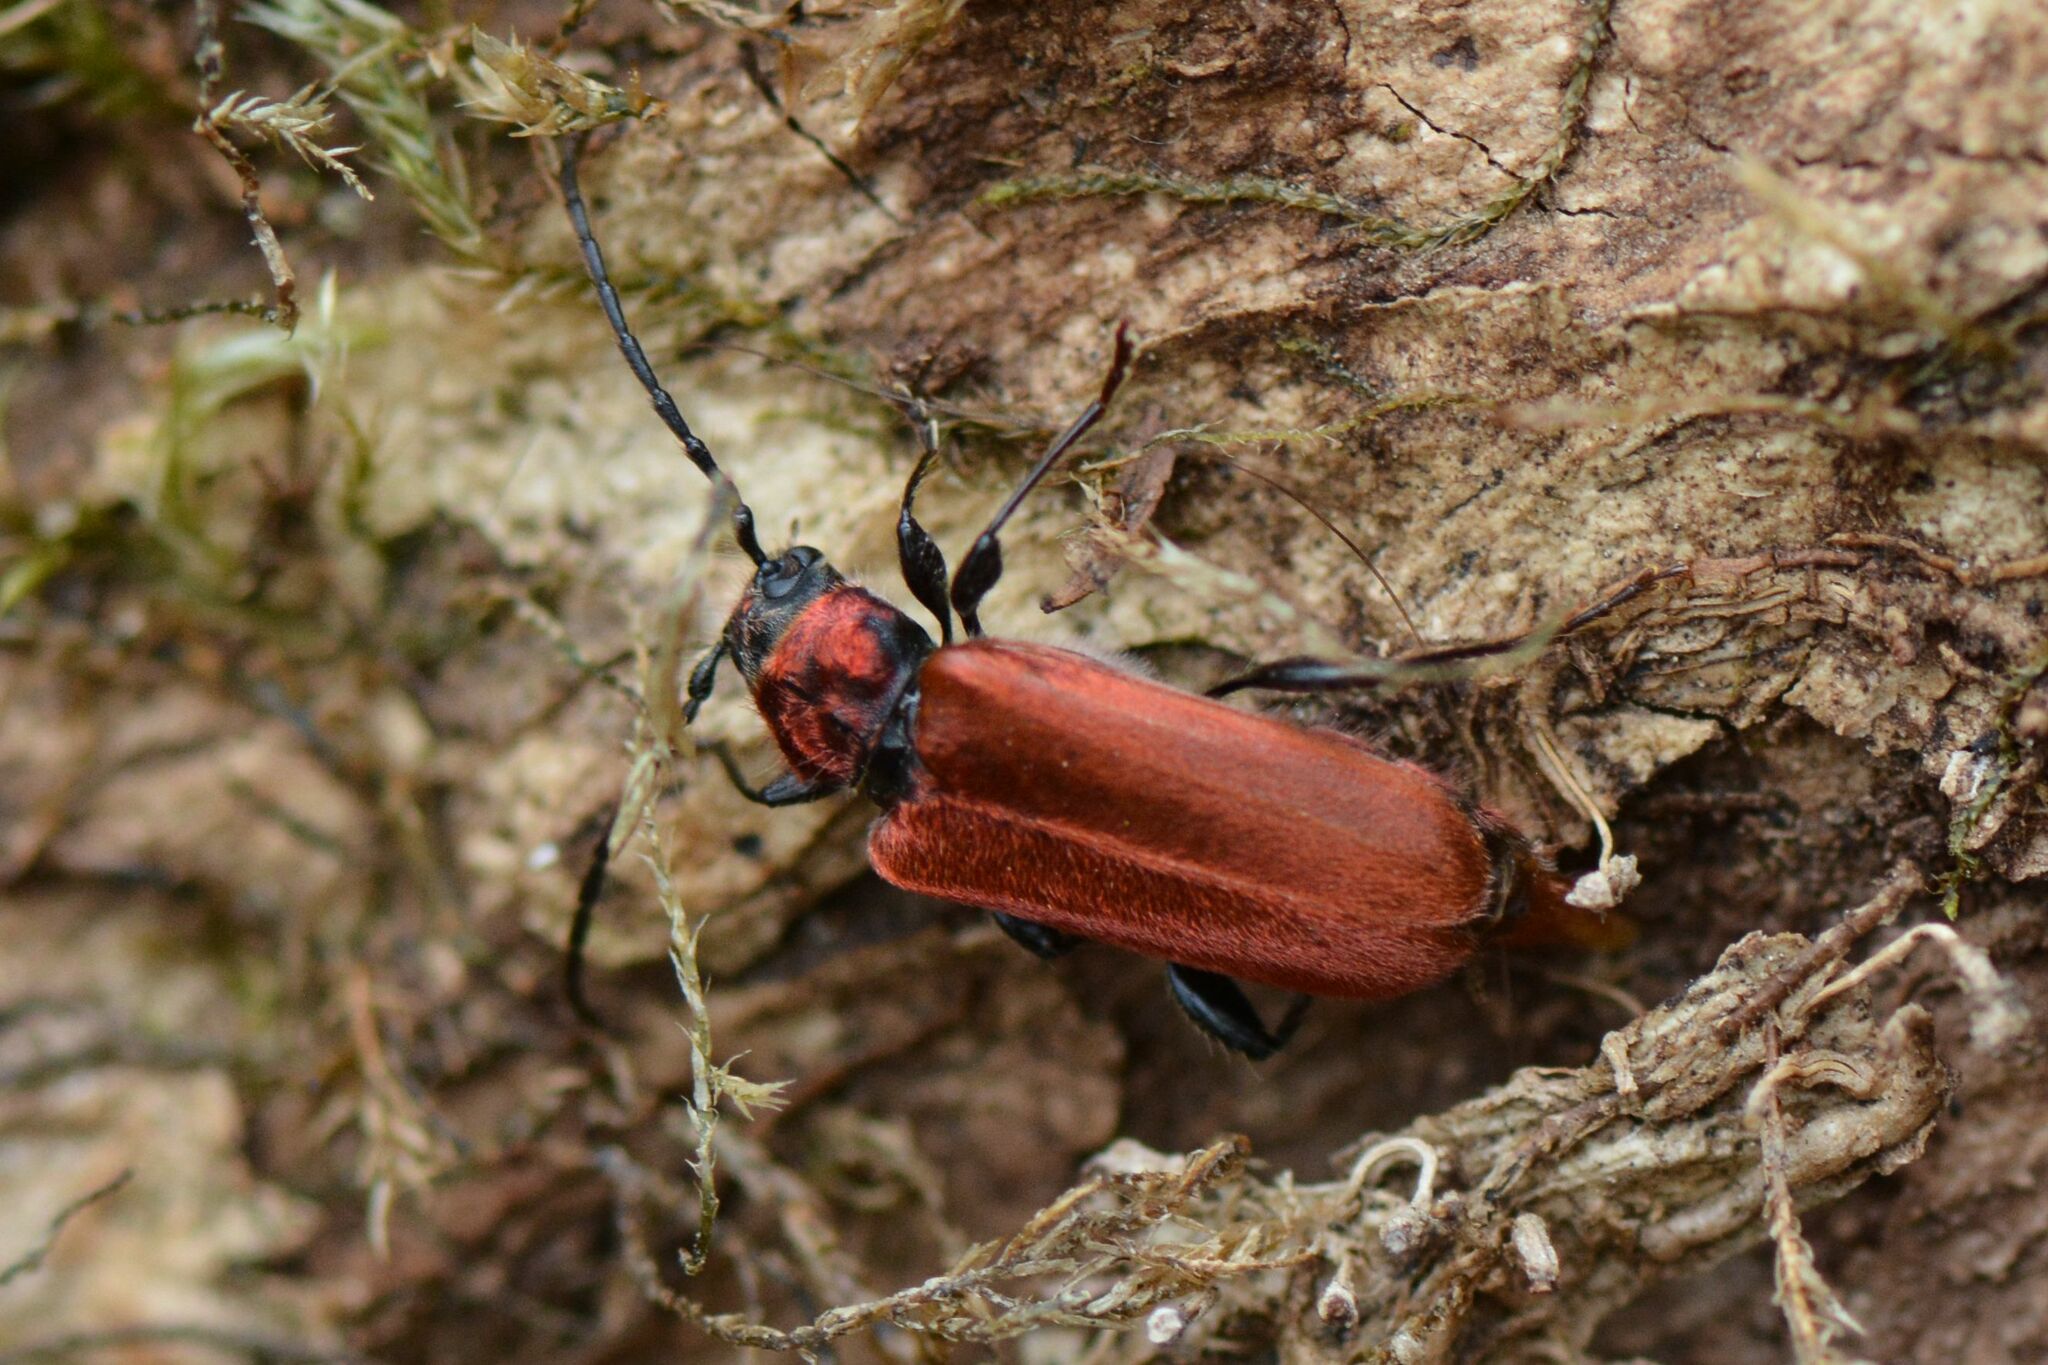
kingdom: Animalia
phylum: Arthropoda
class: Insecta
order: Coleoptera
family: Cerambycidae
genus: Pyrrhidium
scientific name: Pyrrhidium sanguineum
